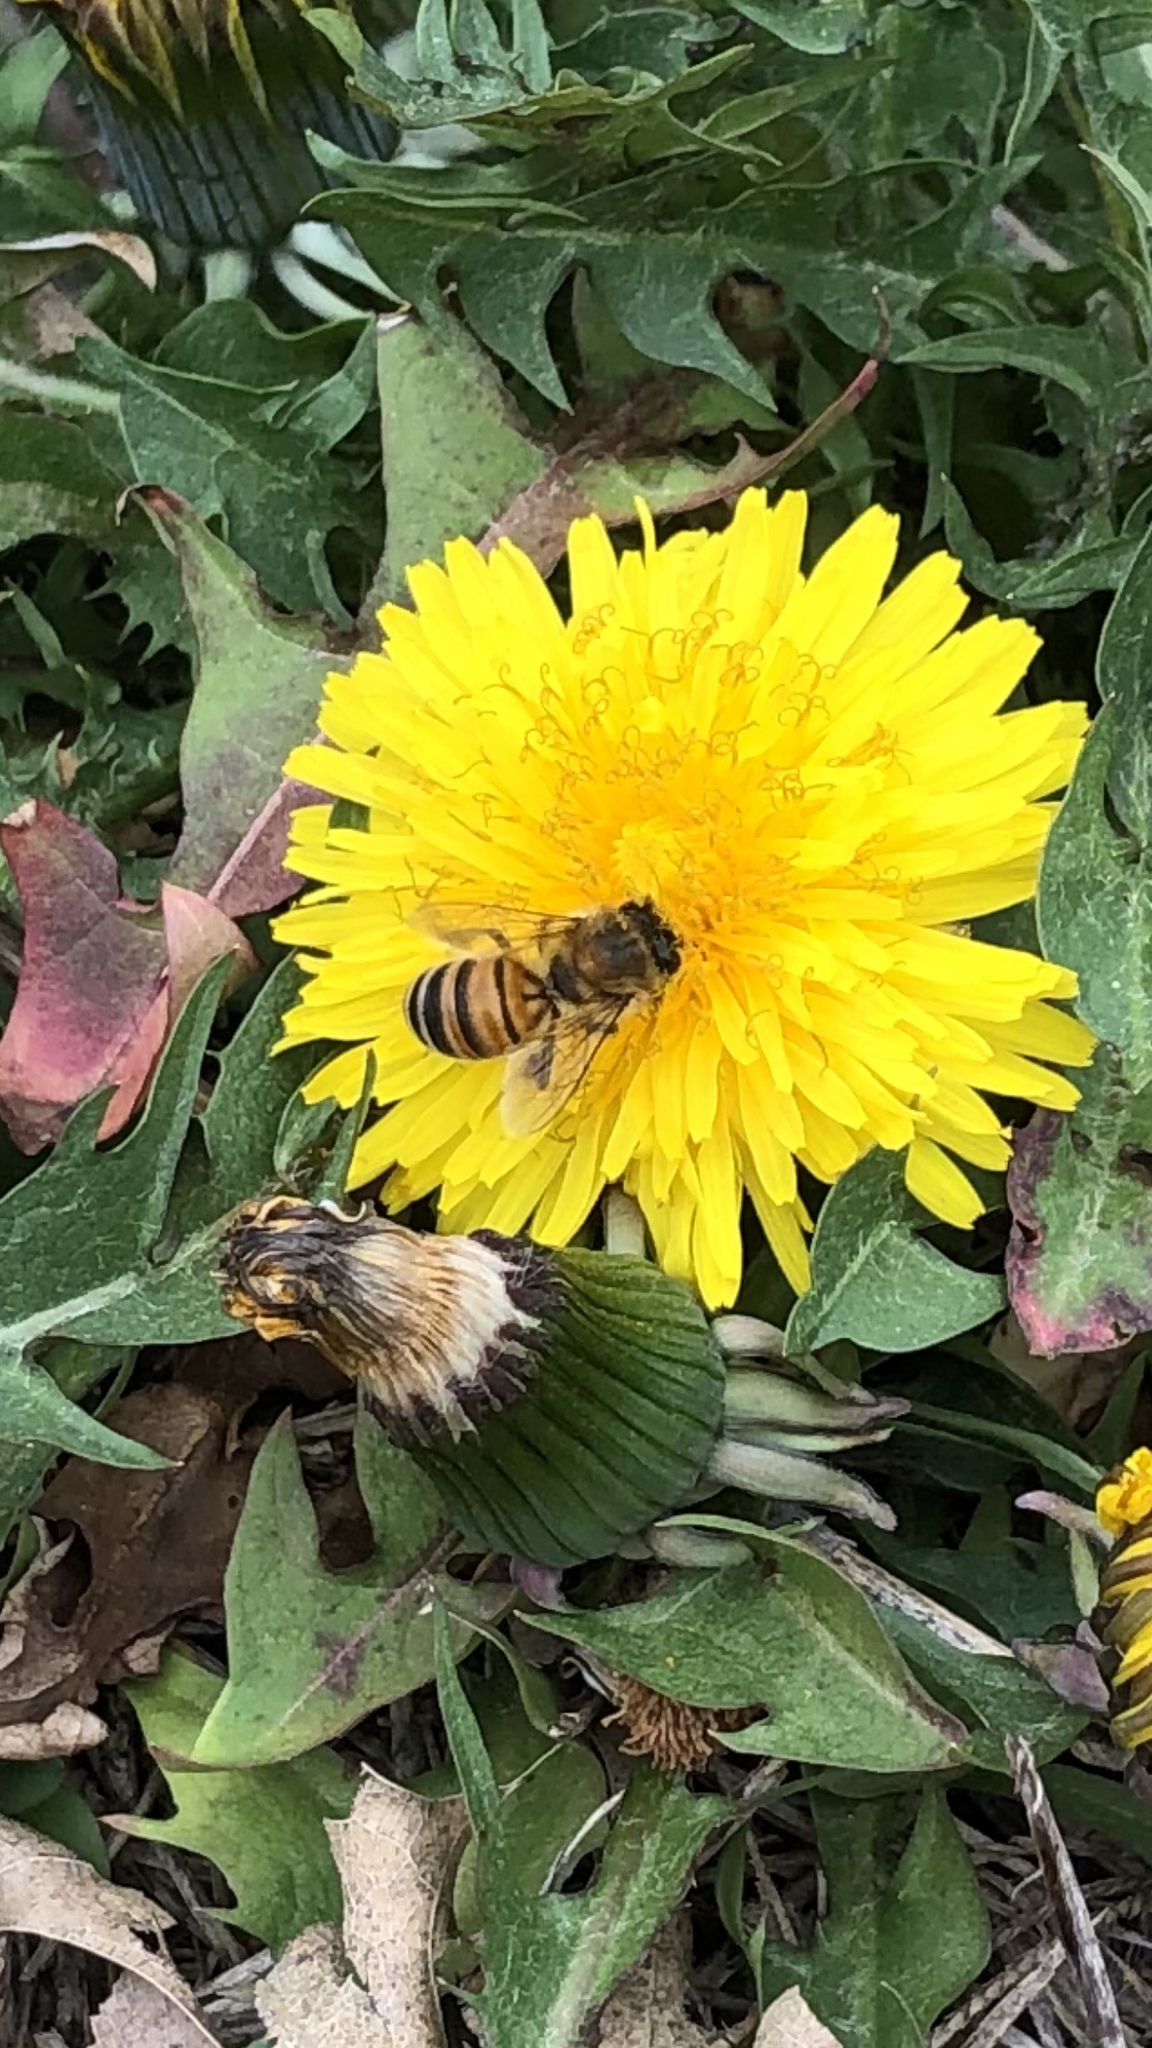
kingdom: Animalia
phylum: Arthropoda
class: Insecta
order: Hymenoptera
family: Apidae
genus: Apis
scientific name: Apis mellifera
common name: Honey bee
